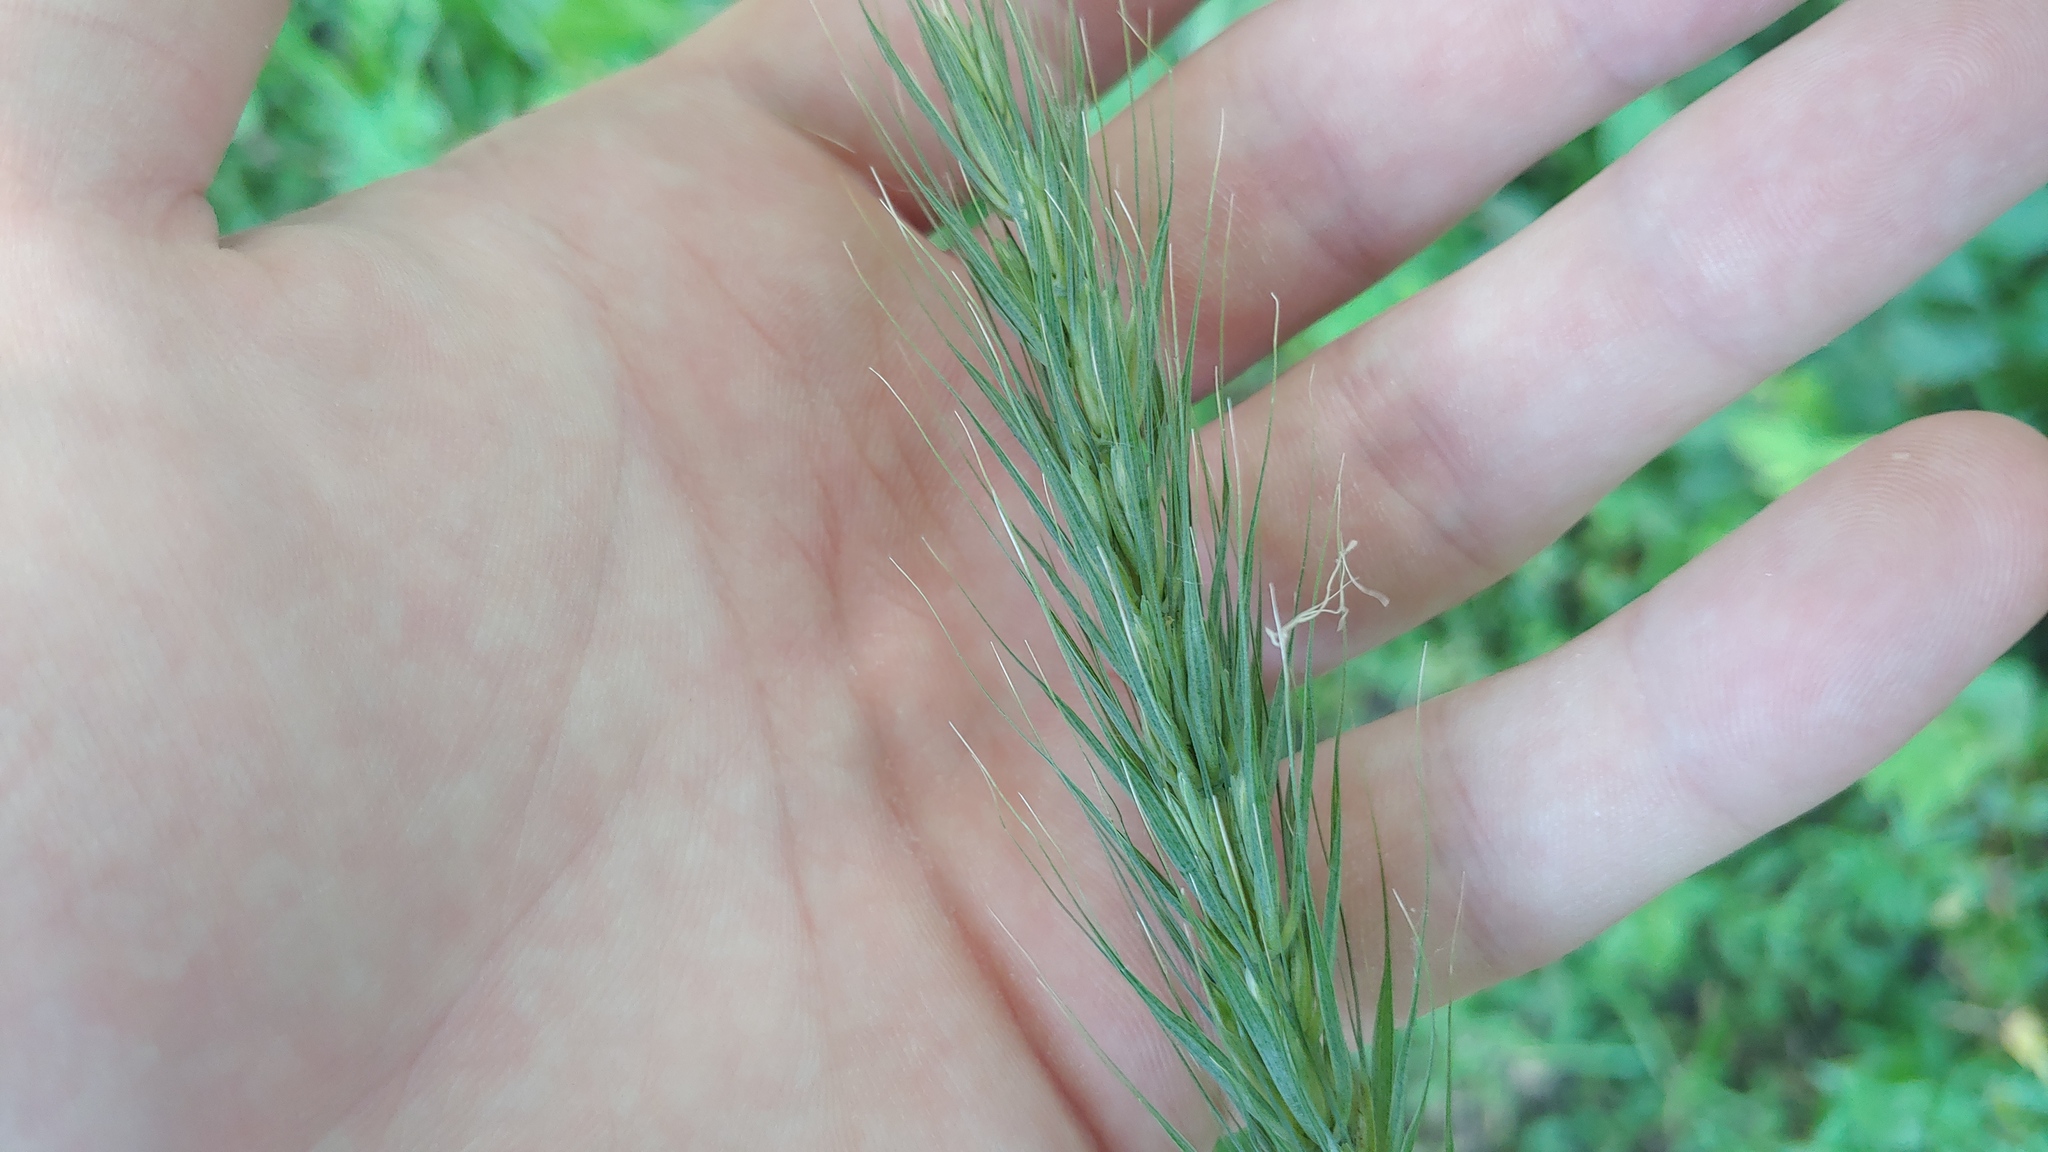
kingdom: Plantae
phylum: Tracheophyta
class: Liliopsida
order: Poales
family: Poaceae
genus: Elymus
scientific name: Elymus villosus
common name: Downy wild rye
